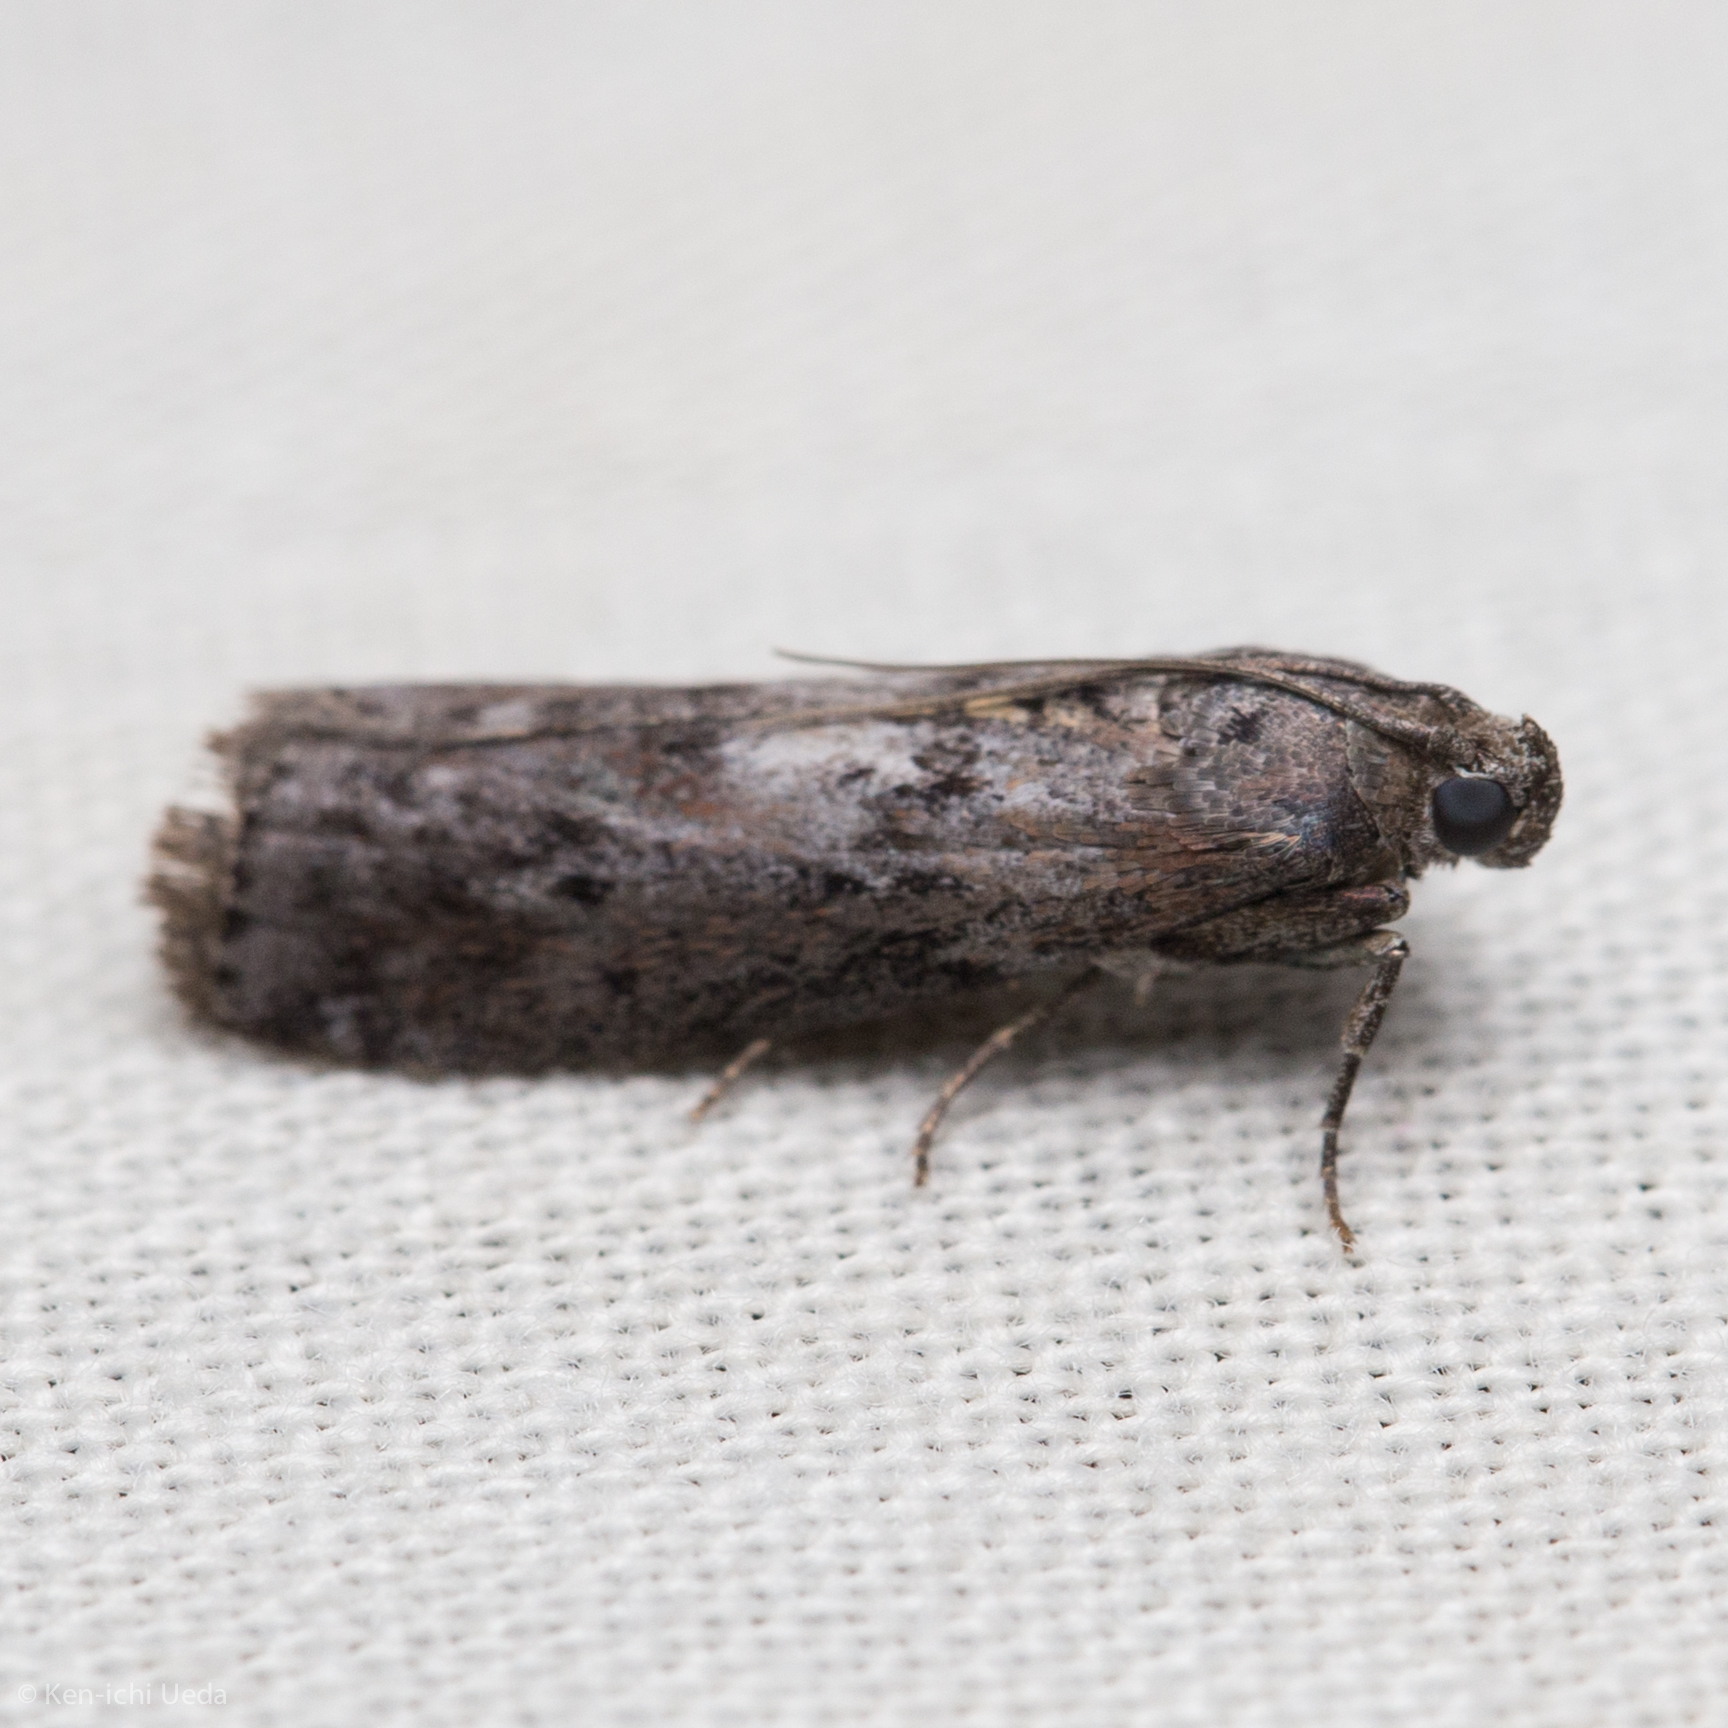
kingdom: Animalia
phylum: Arthropoda
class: Insecta
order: Lepidoptera
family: Pyralidae
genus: Sciota
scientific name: Sciota virgatella
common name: Black-spotted leafroller moth
